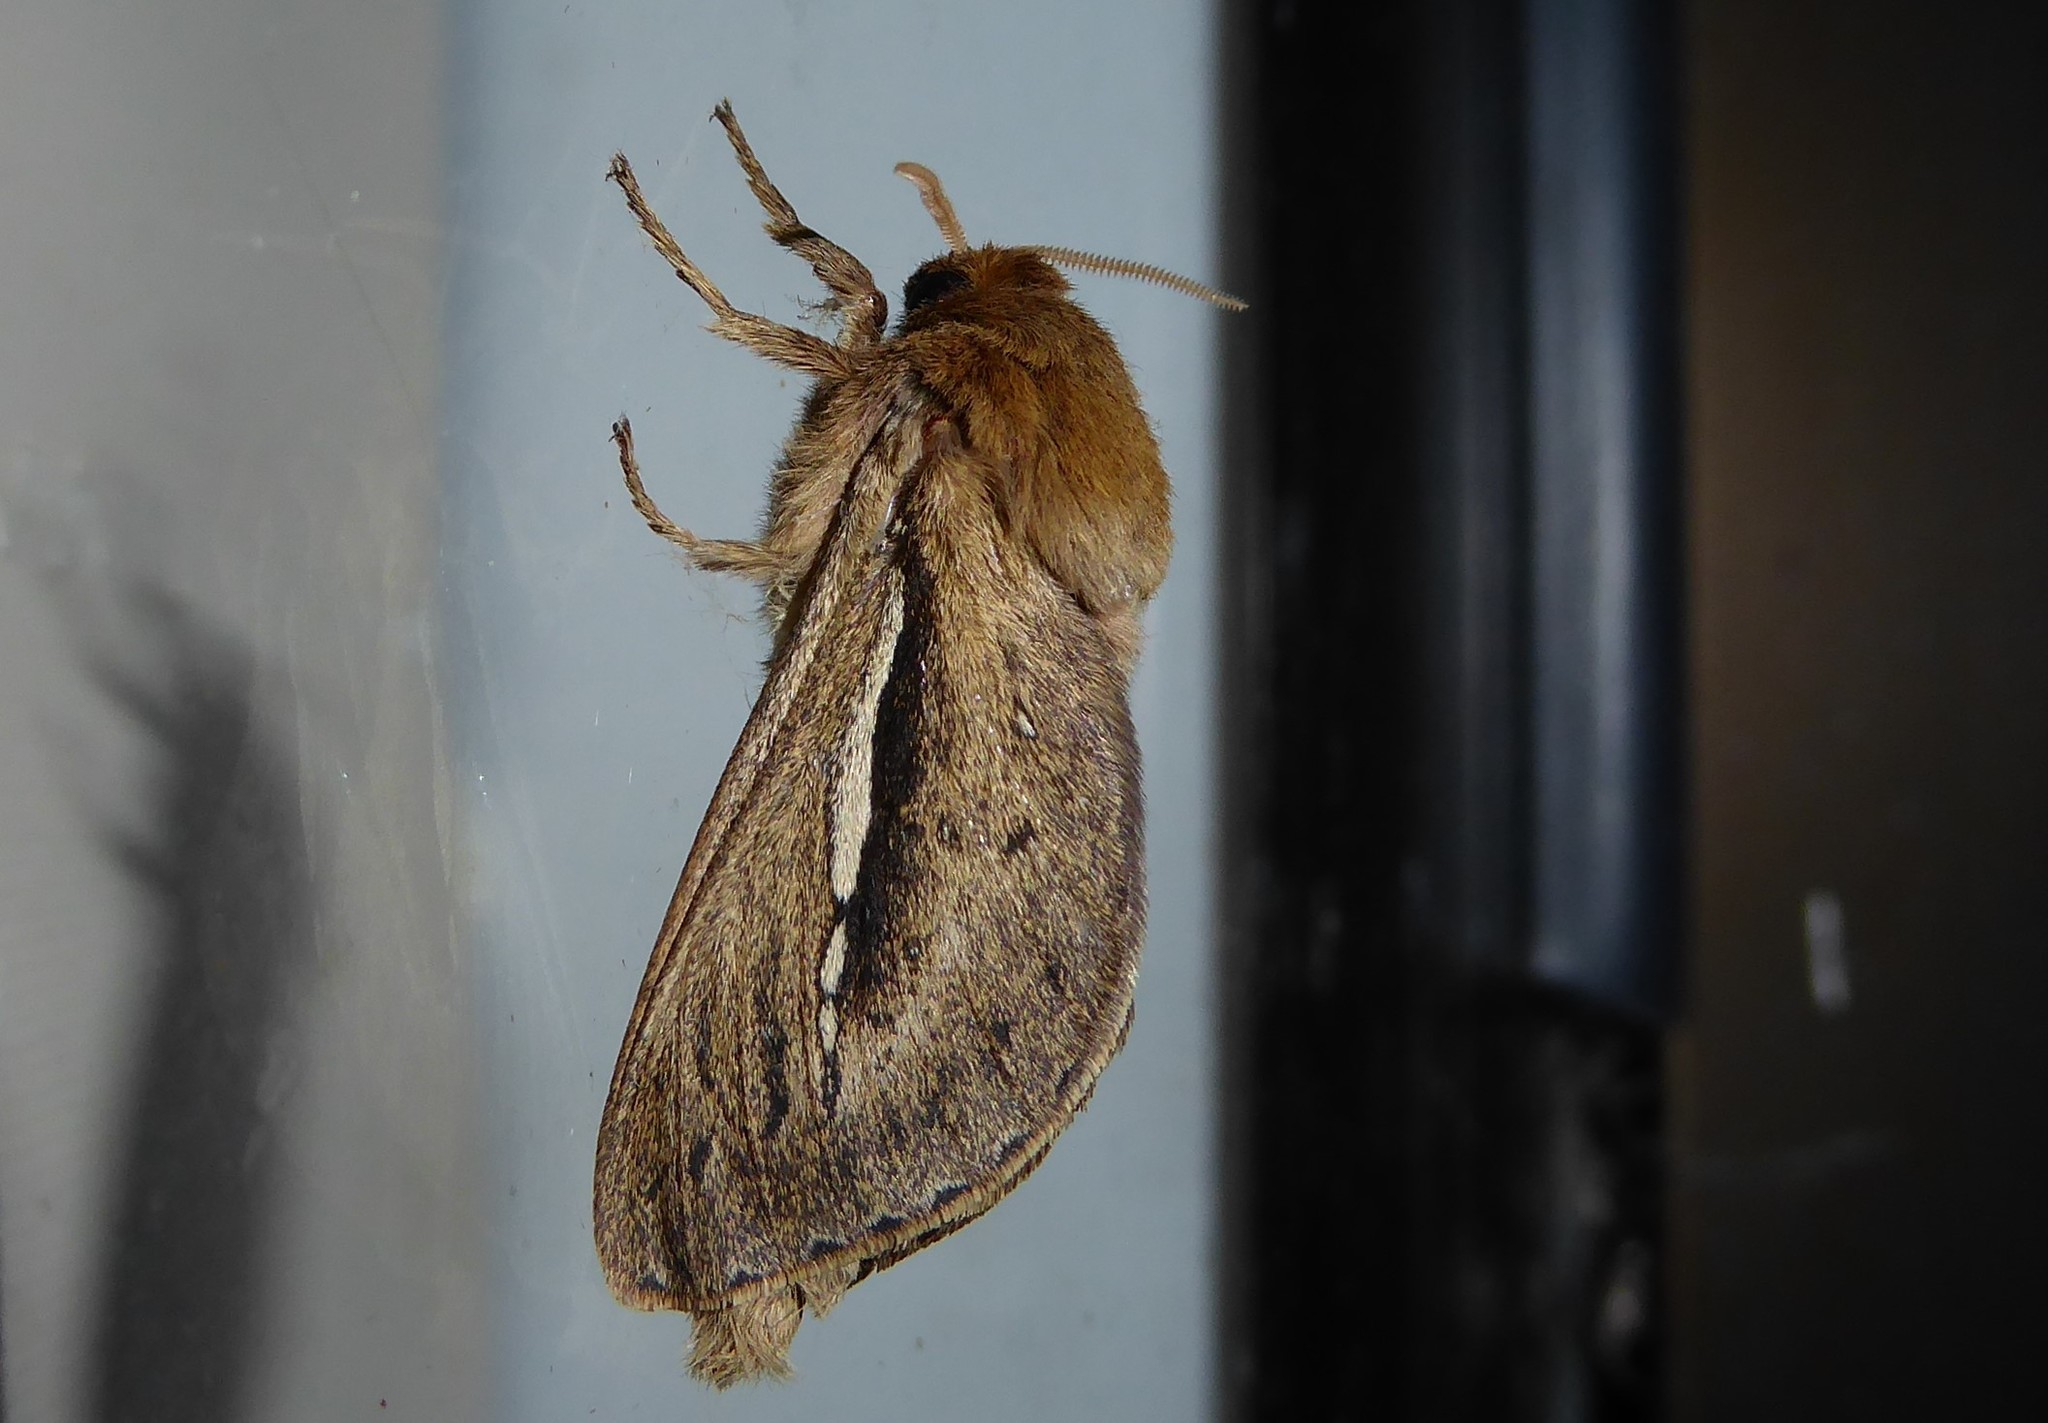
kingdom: Animalia
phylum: Arthropoda
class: Insecta
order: Lepidoptera
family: Hepialidae
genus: Wiseana
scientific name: Wiseana umbraculatus
